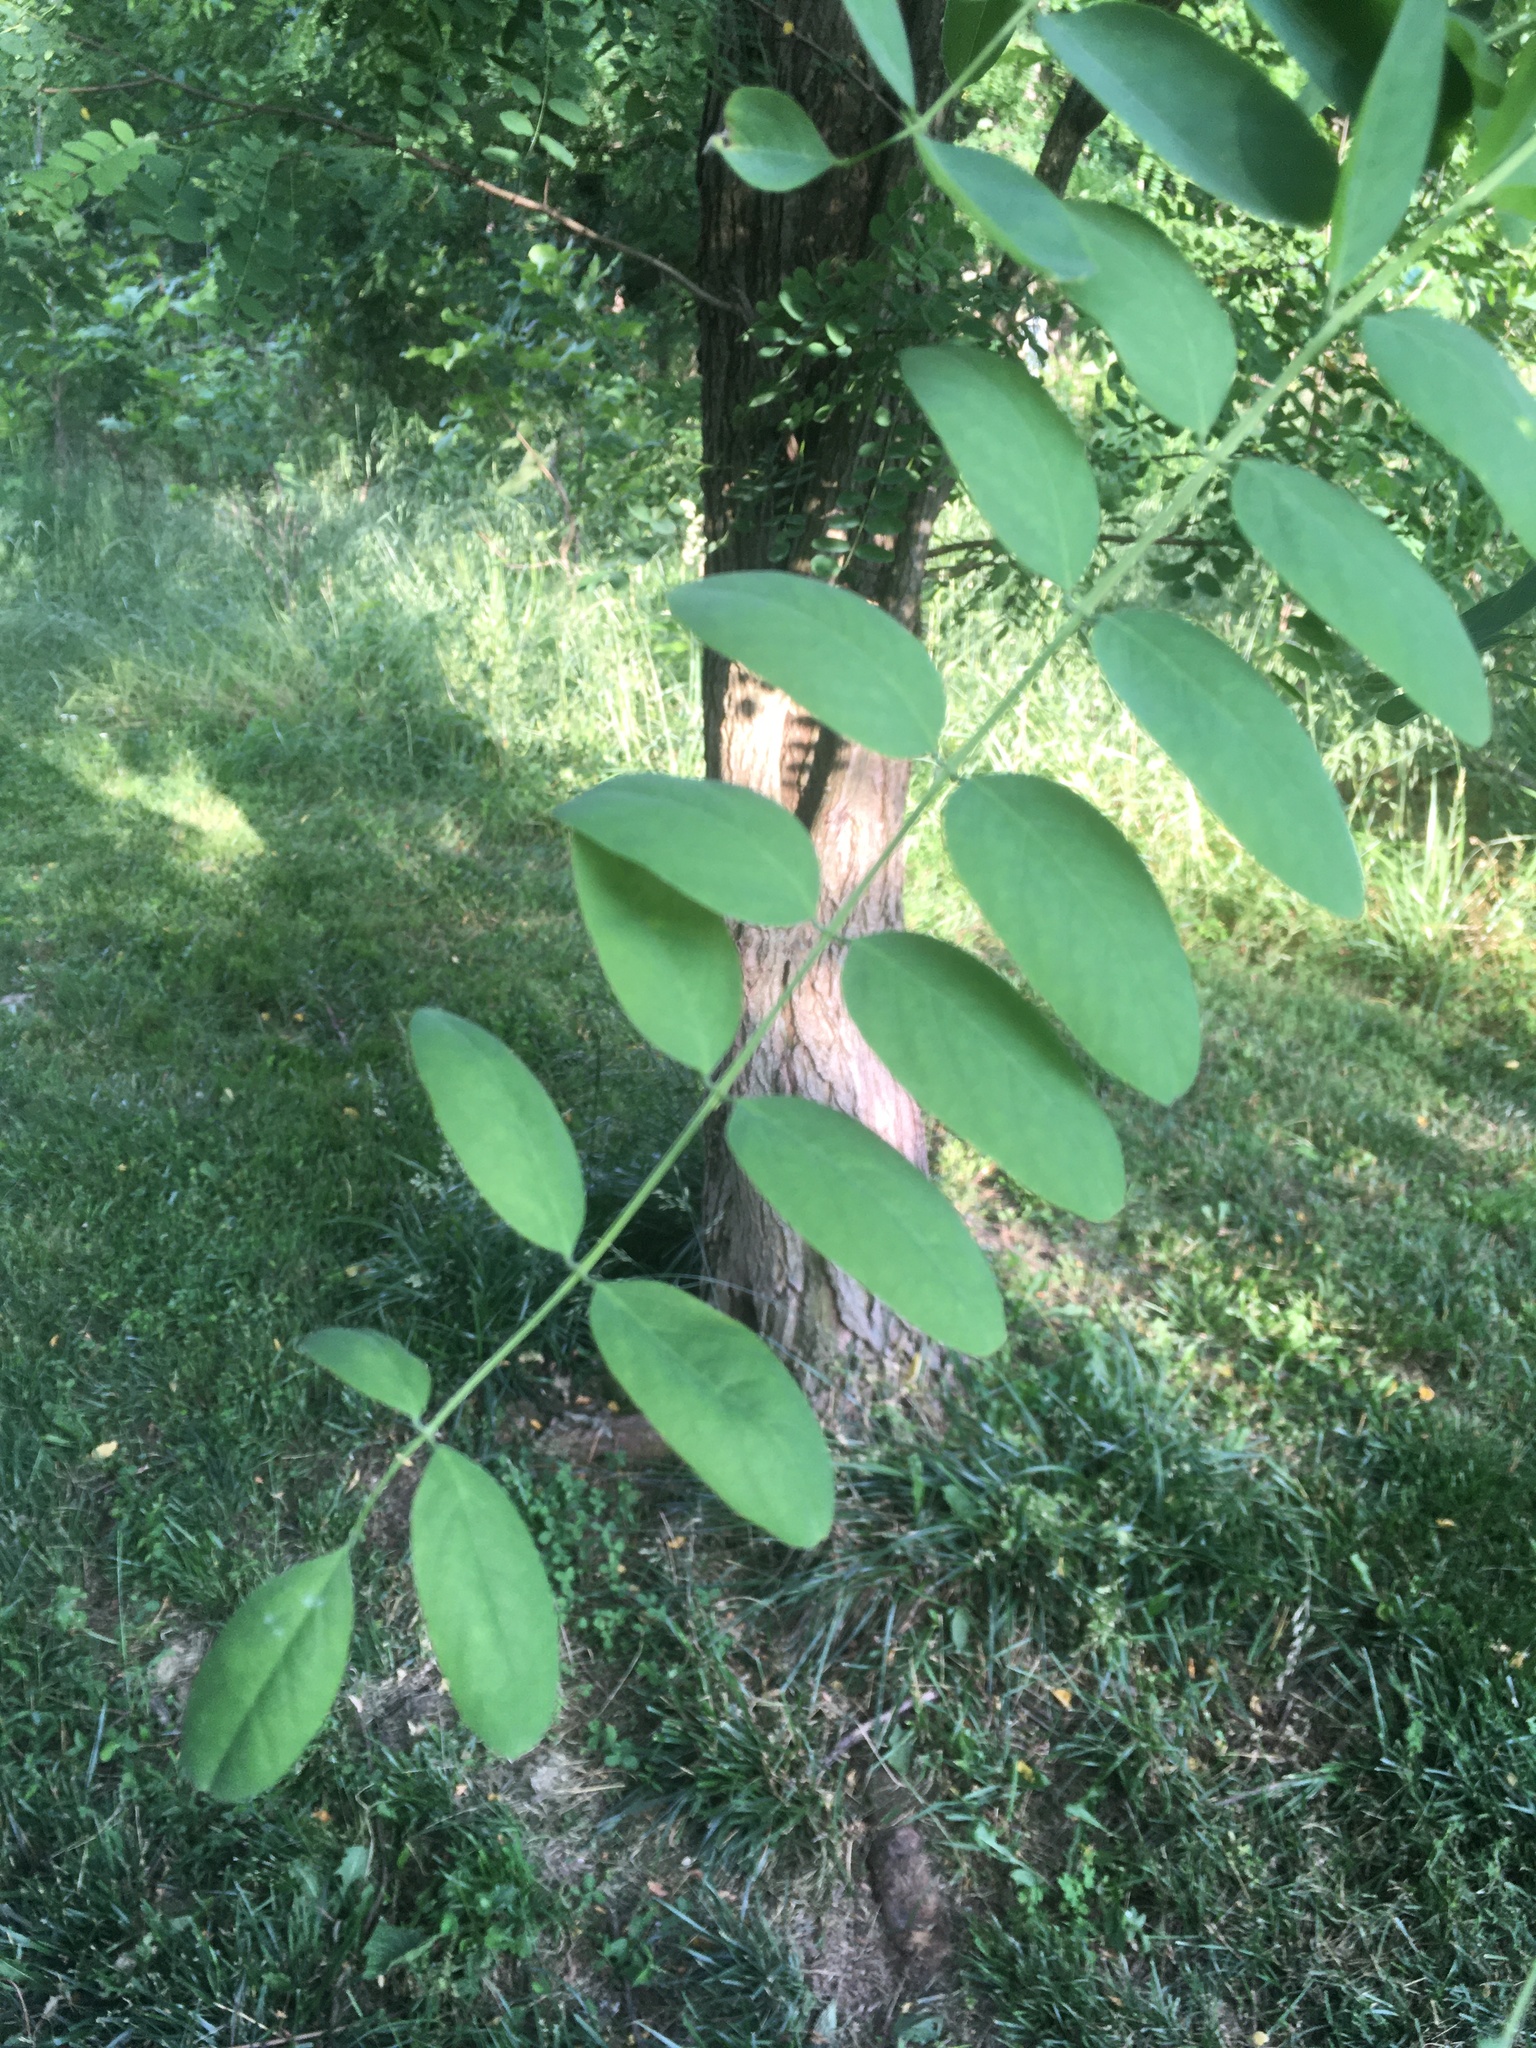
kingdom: Plantae
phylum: Tracheophyta
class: Magnoliopsida
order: Fabales
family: Fabaceae
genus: Robinia
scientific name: Robinia pseudoacacia
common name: Black locust
